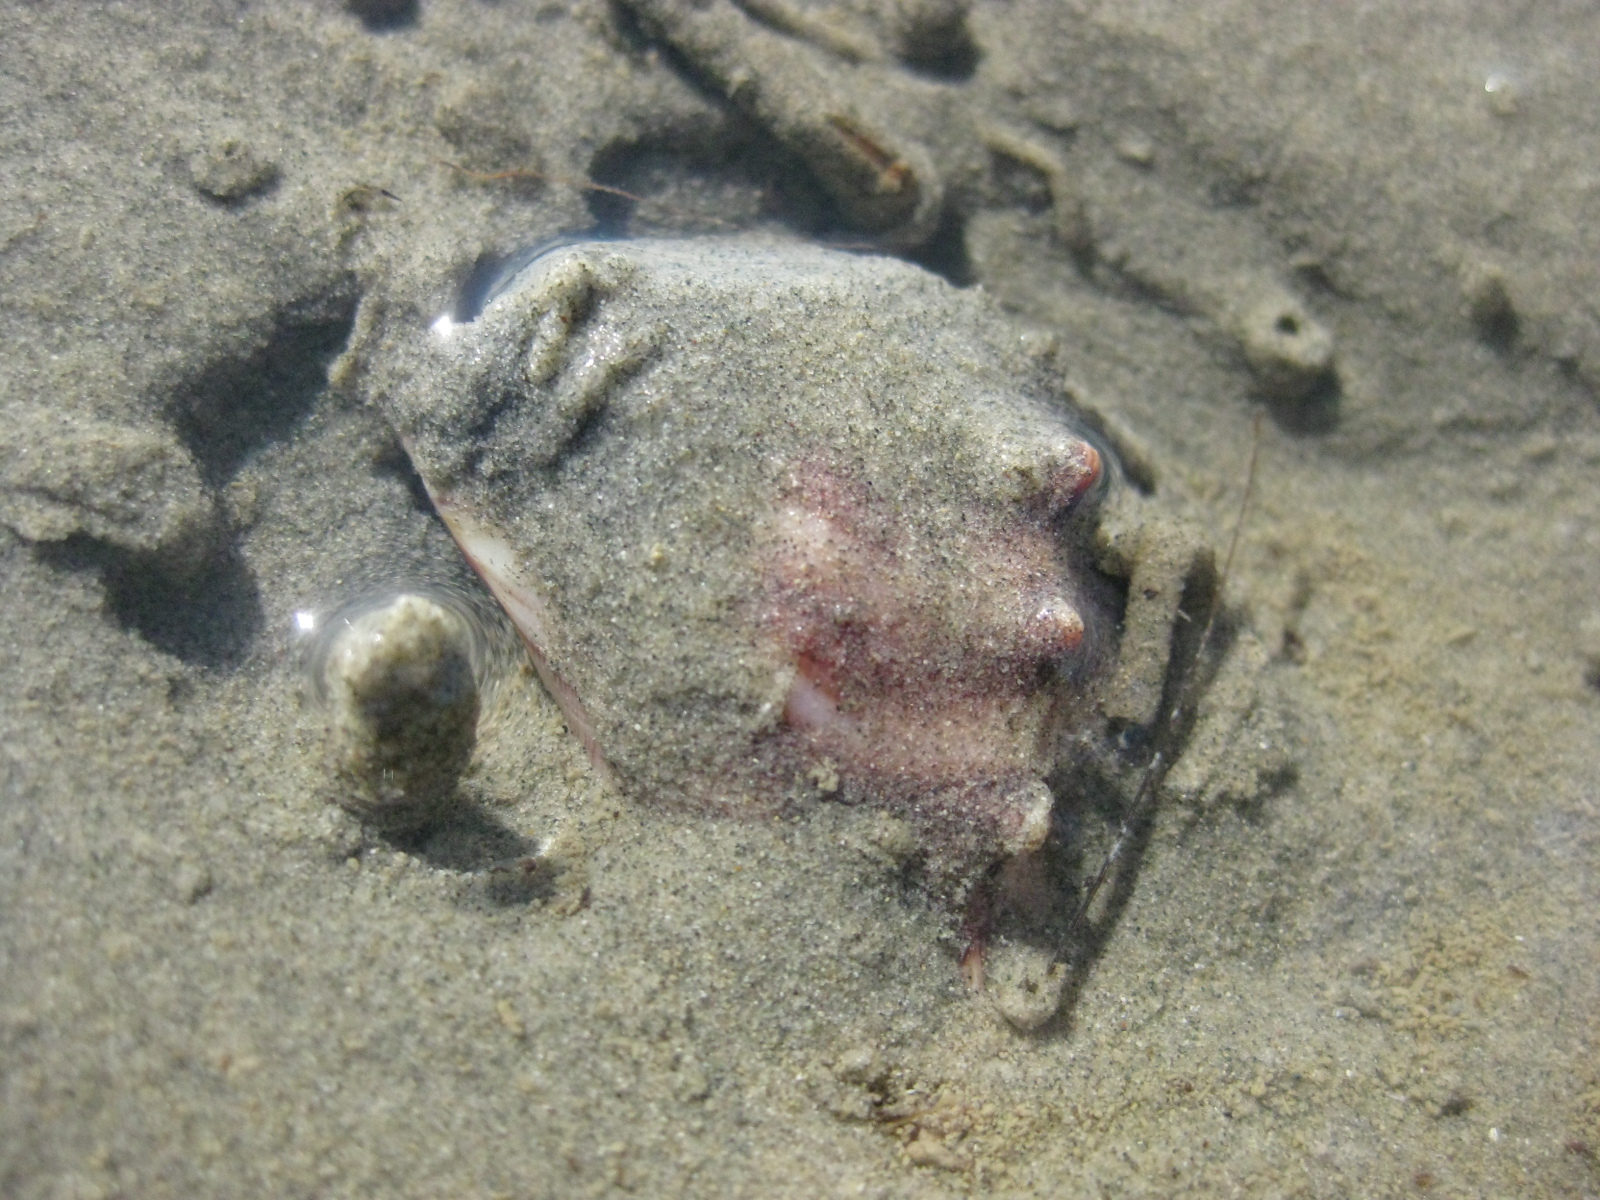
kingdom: Animalia
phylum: Mollusca
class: Gastropoda
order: Littorinimorpha
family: Struthiolariidae
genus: Struthiolaria
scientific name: Struthiolaria papulosa
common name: Large ostrich foot
